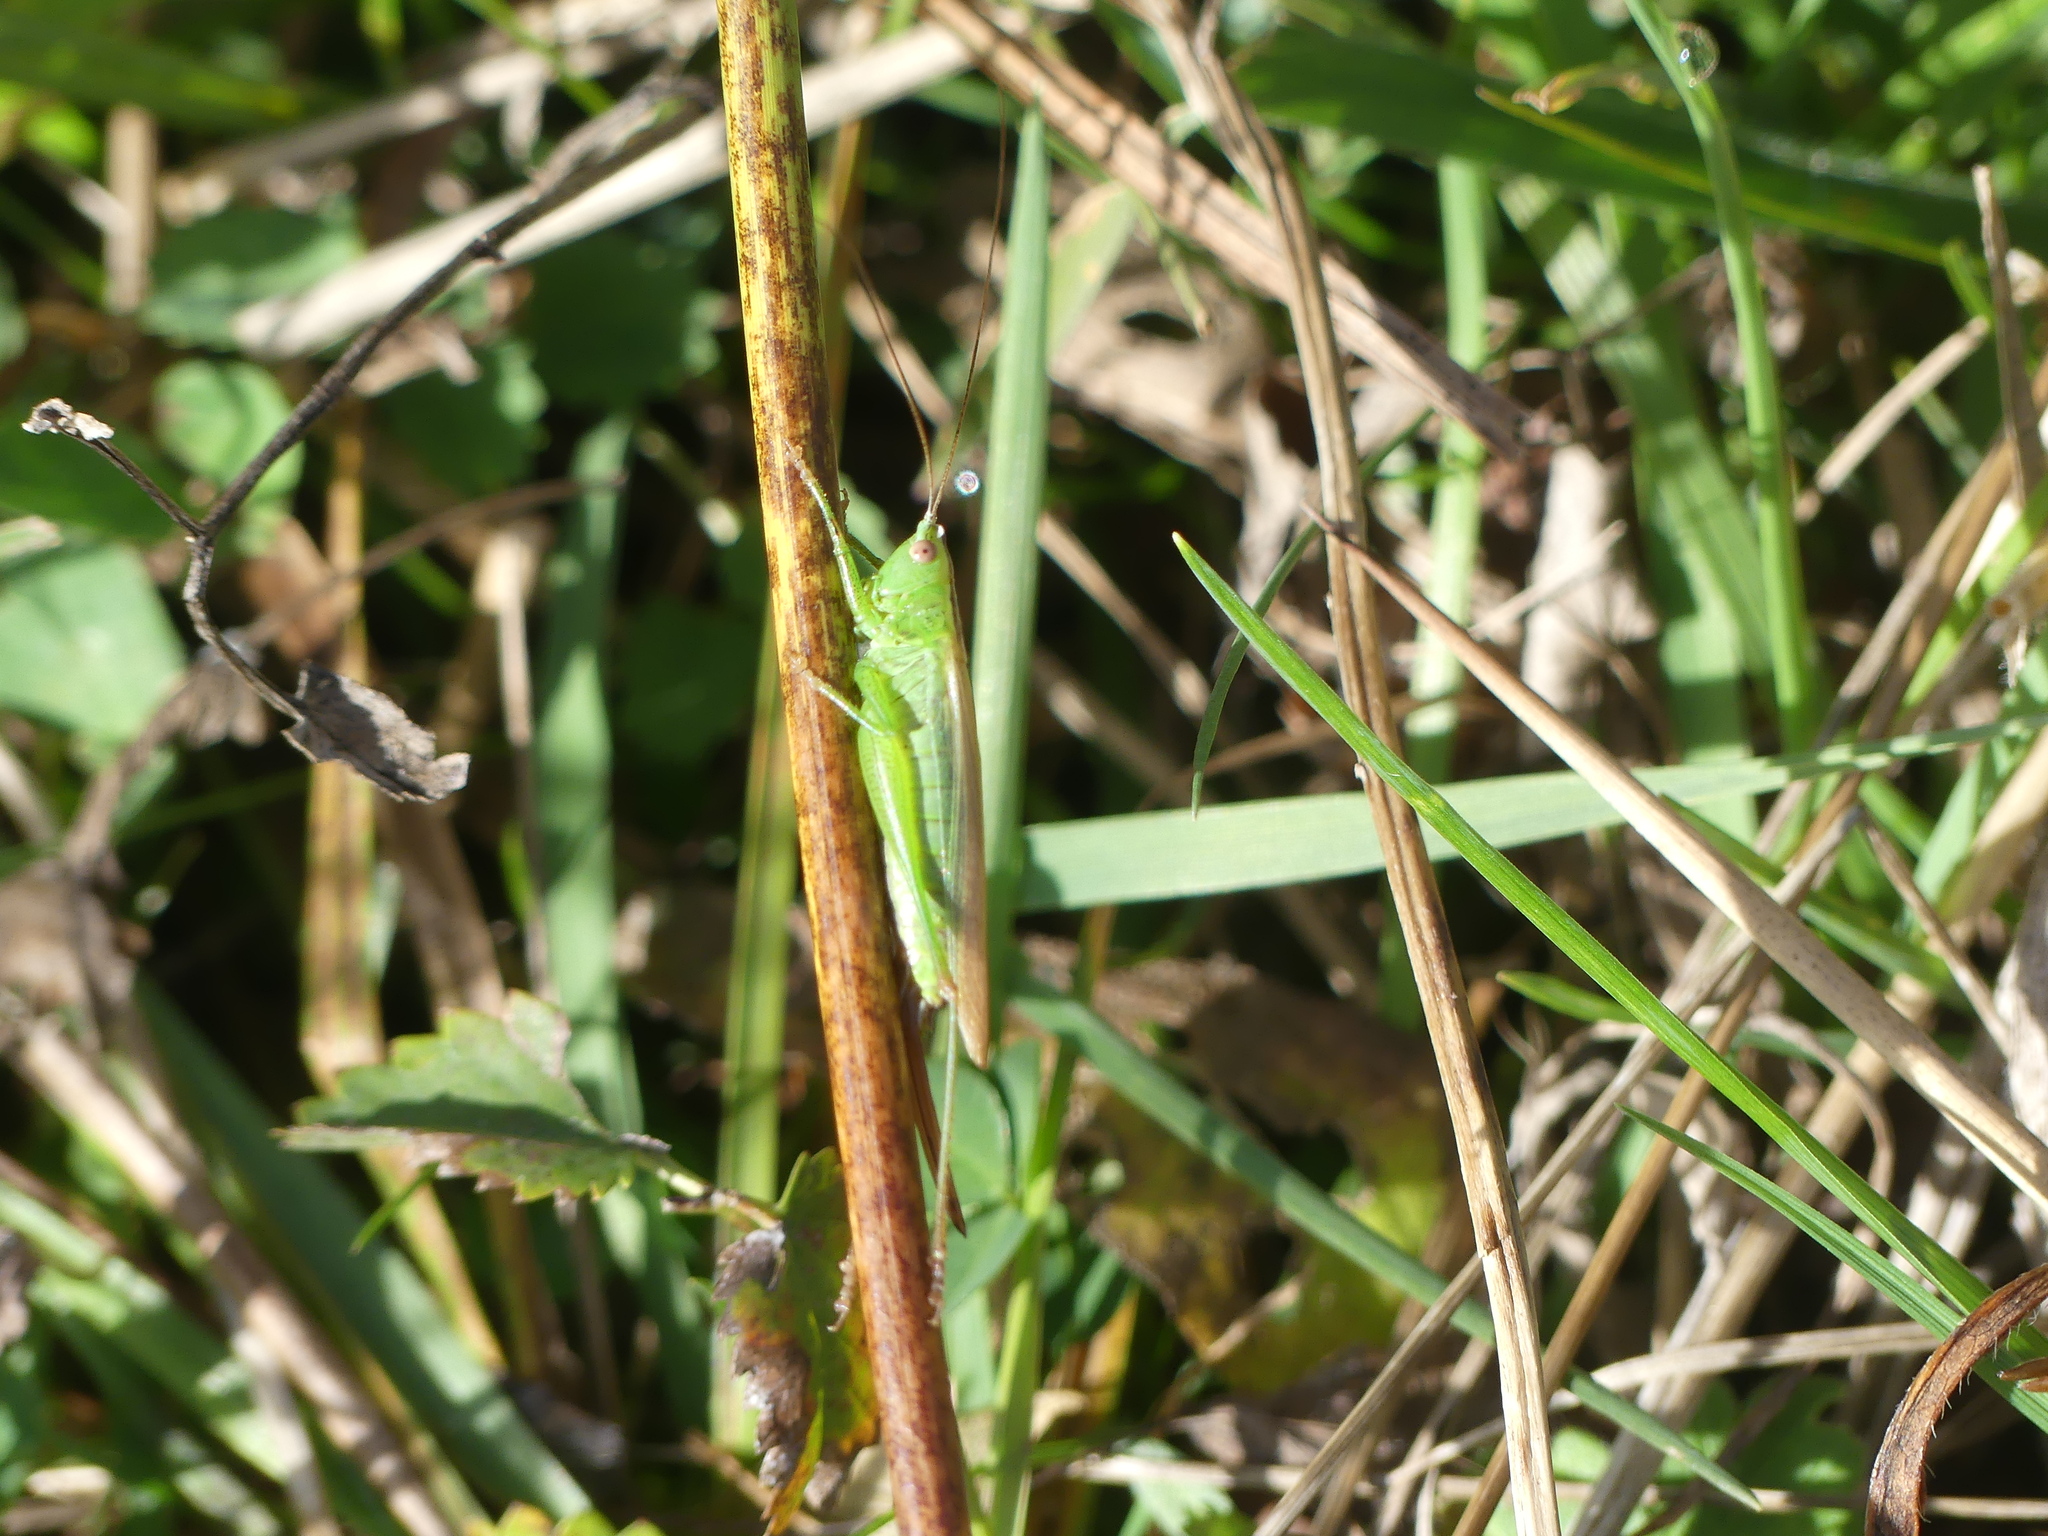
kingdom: Animalia
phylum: Arthropoda
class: Insecta
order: Orthoptera
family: Tettigoniidae
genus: Conocephalus
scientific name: Conocephalus fuscus
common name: Long-winged conehead
